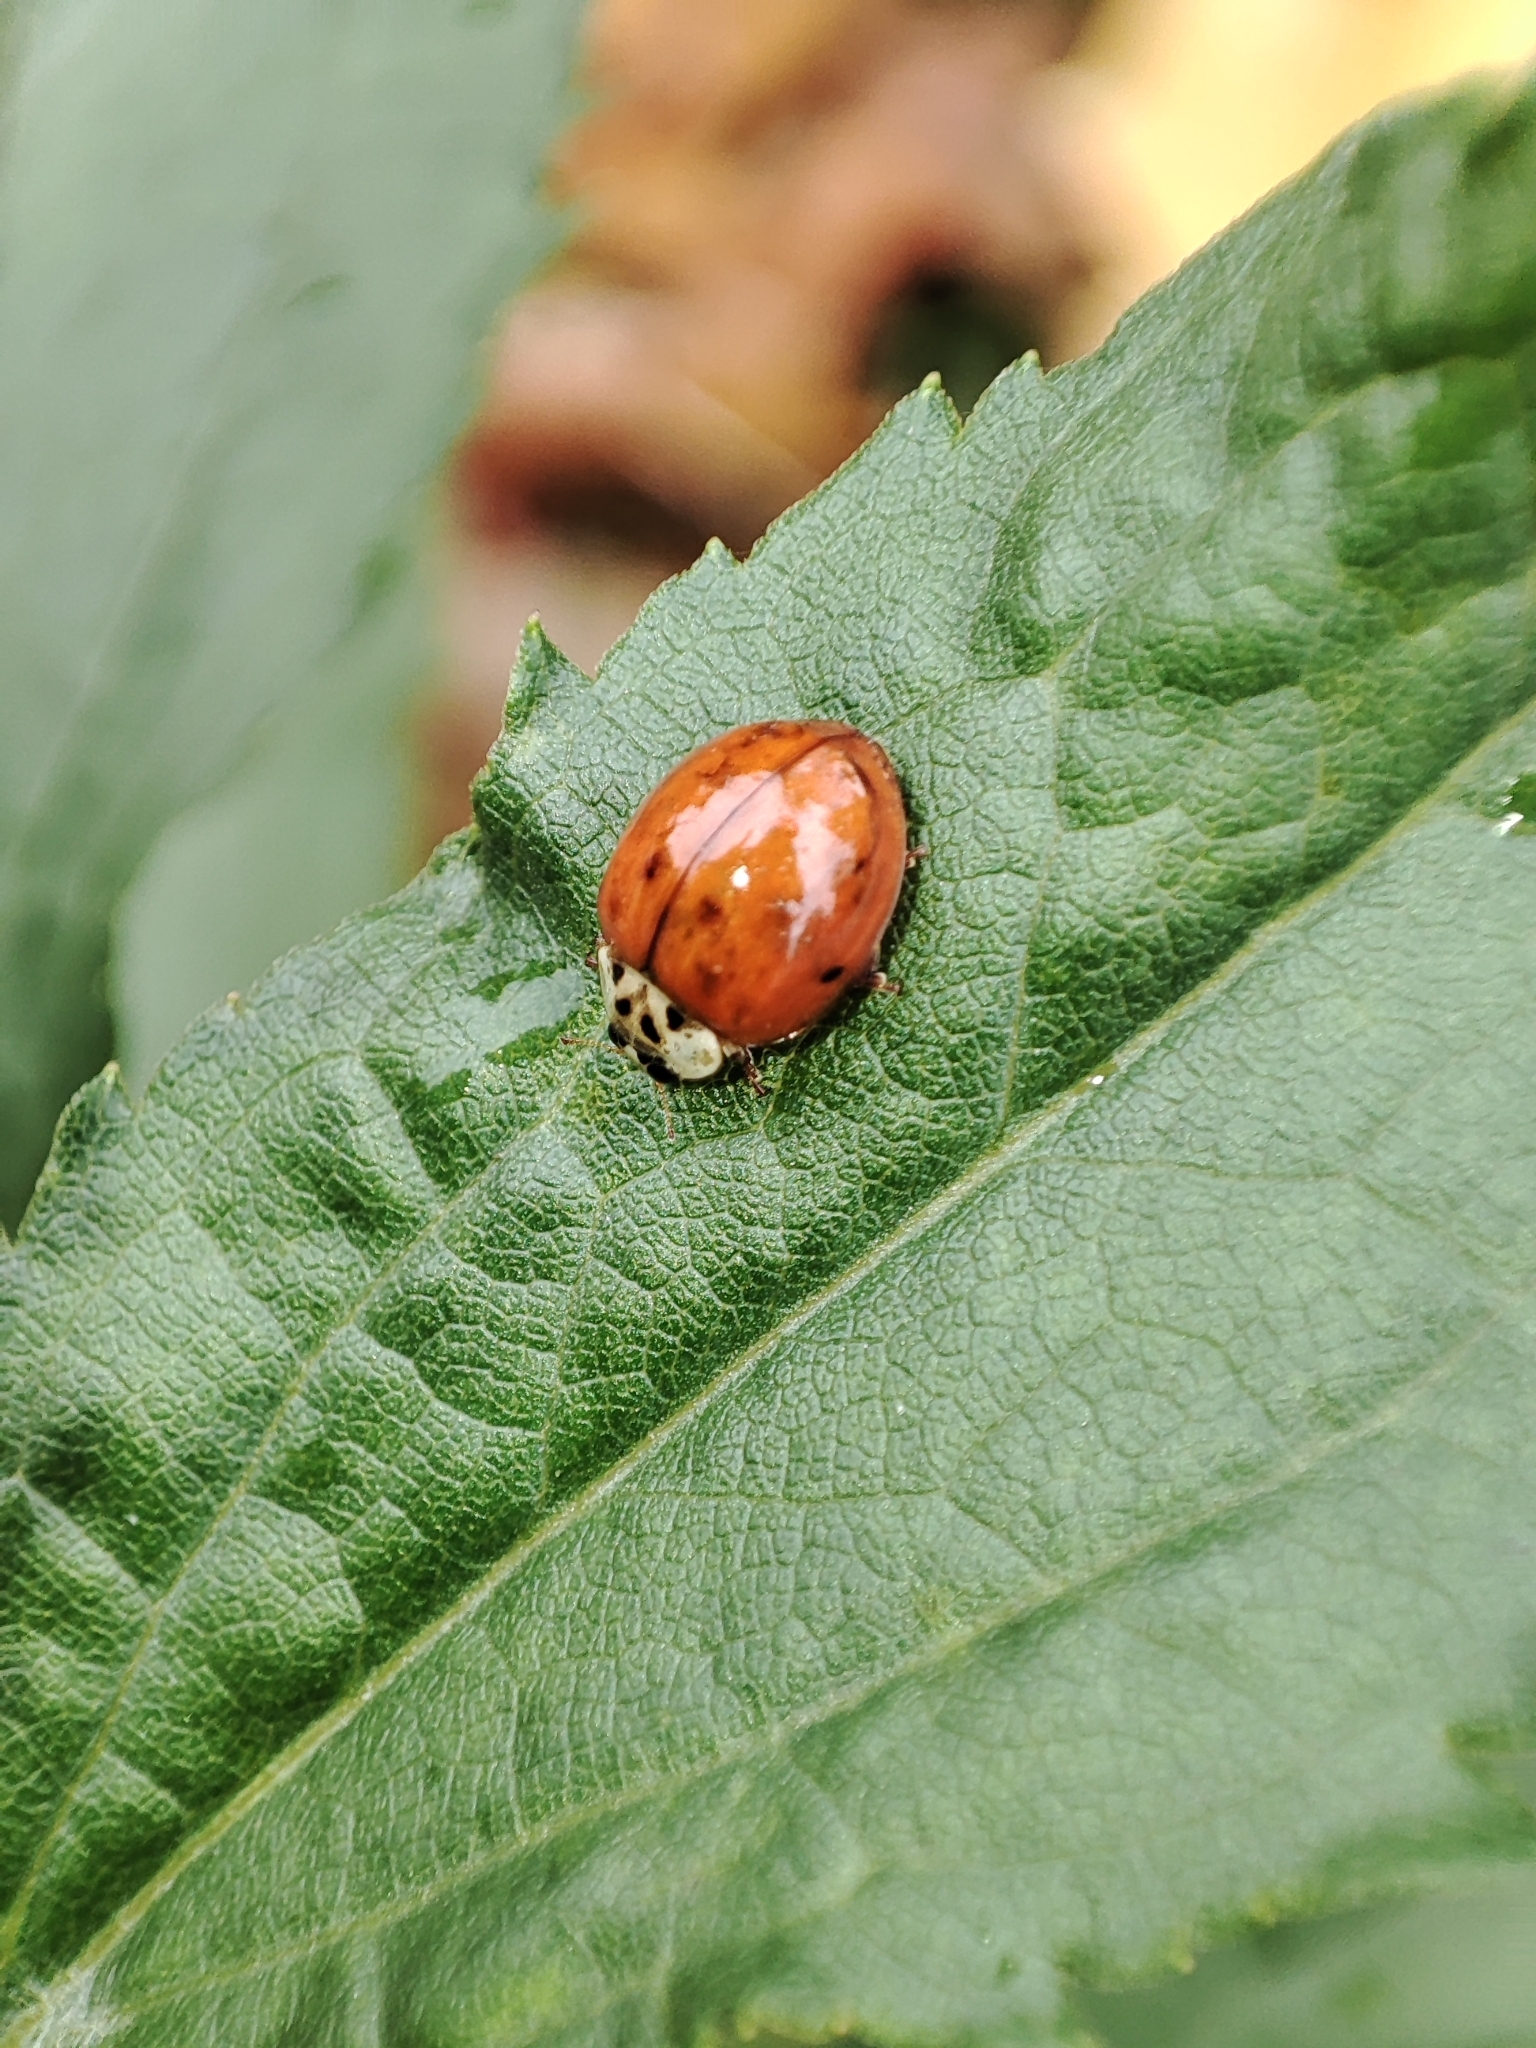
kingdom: Animalia
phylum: Arthropoda
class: Insecta
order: Coleoptera
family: Coccinellidae
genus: Harmonia
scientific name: Harmonia axyridis
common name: Harlequin ladybird
